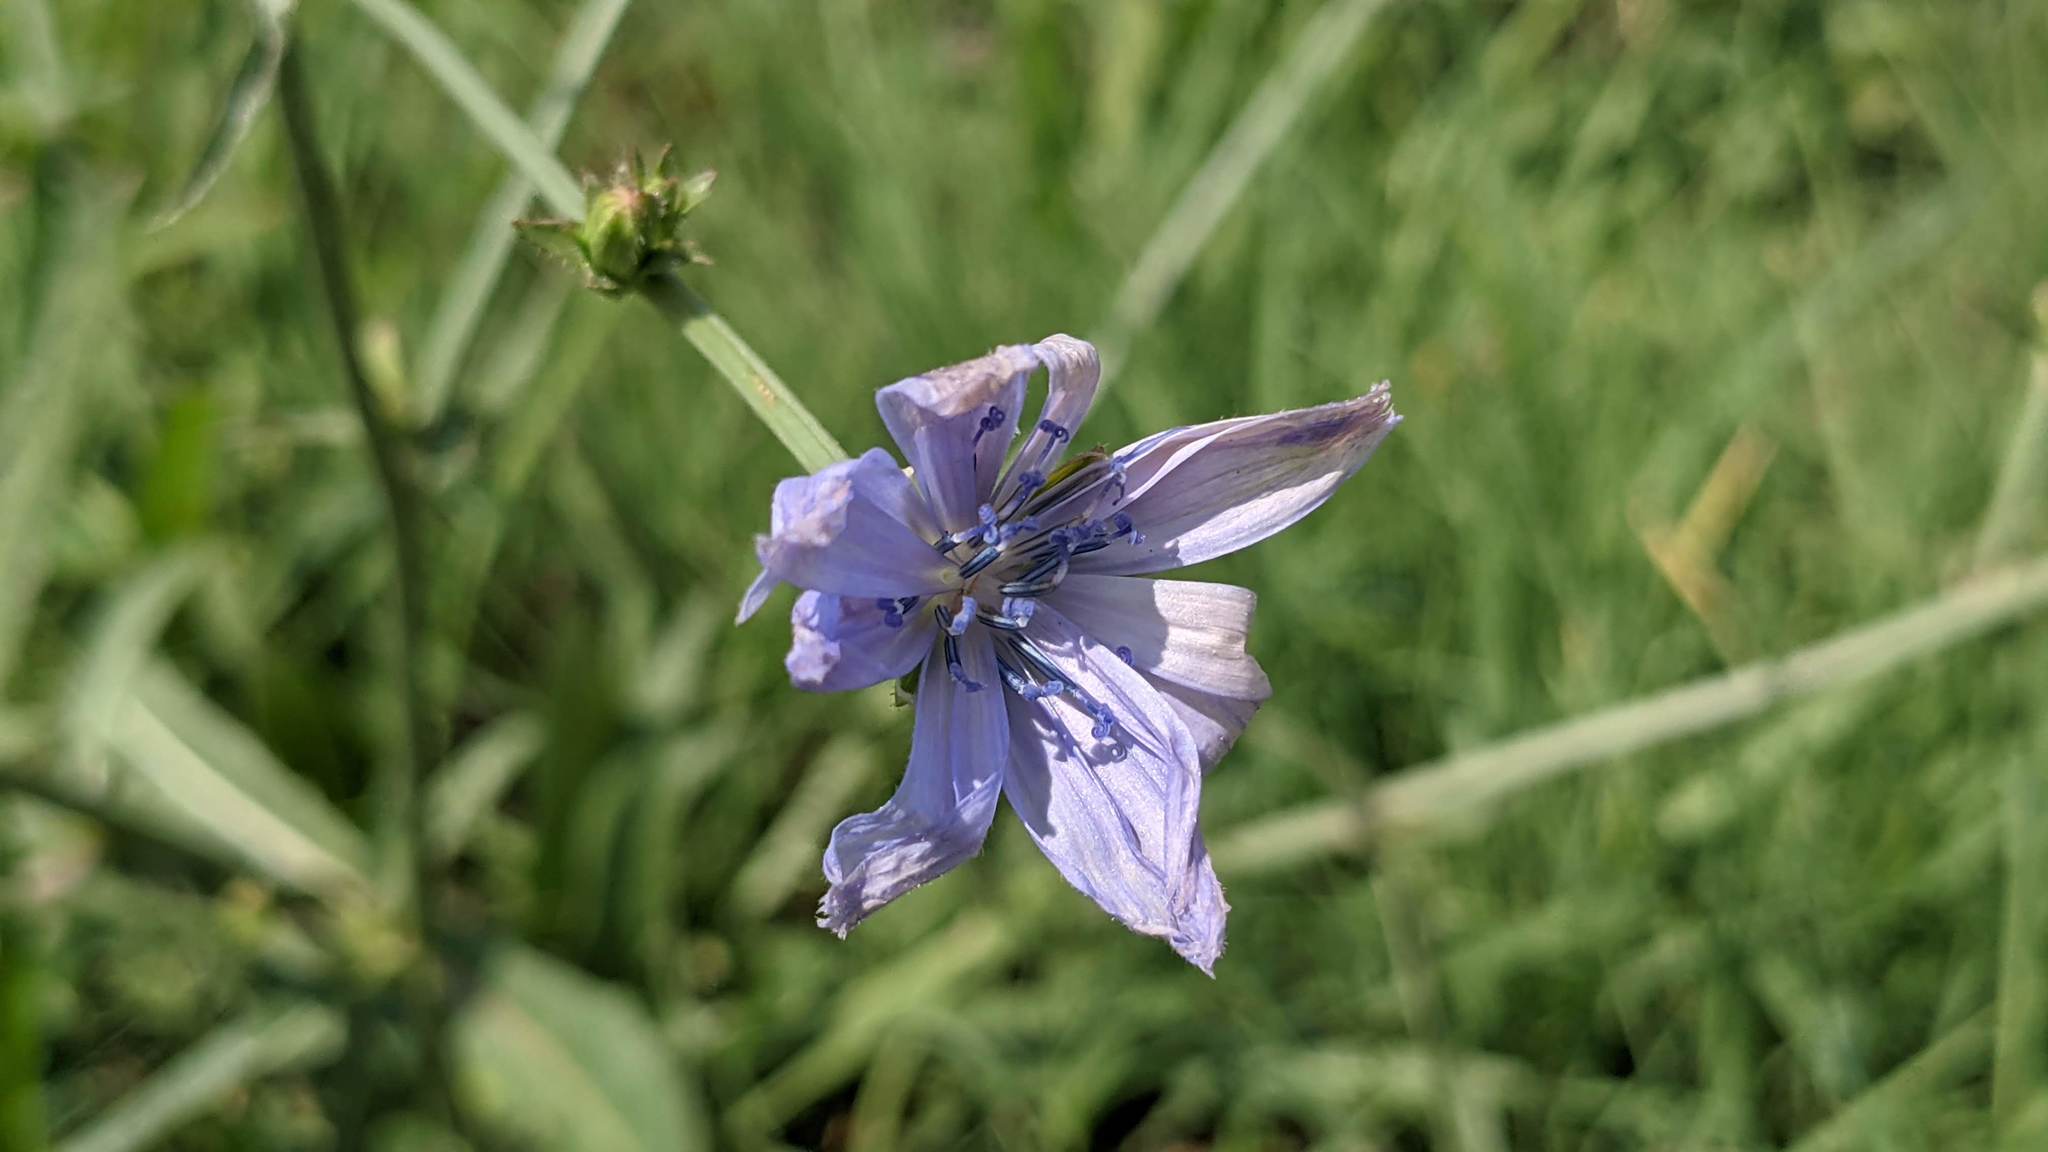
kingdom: Plantae
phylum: Tracheophyta
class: Magnoliopsida
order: Asterales
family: Asteraceae
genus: Cichorium
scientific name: Cichorium intybus
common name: Chicory
